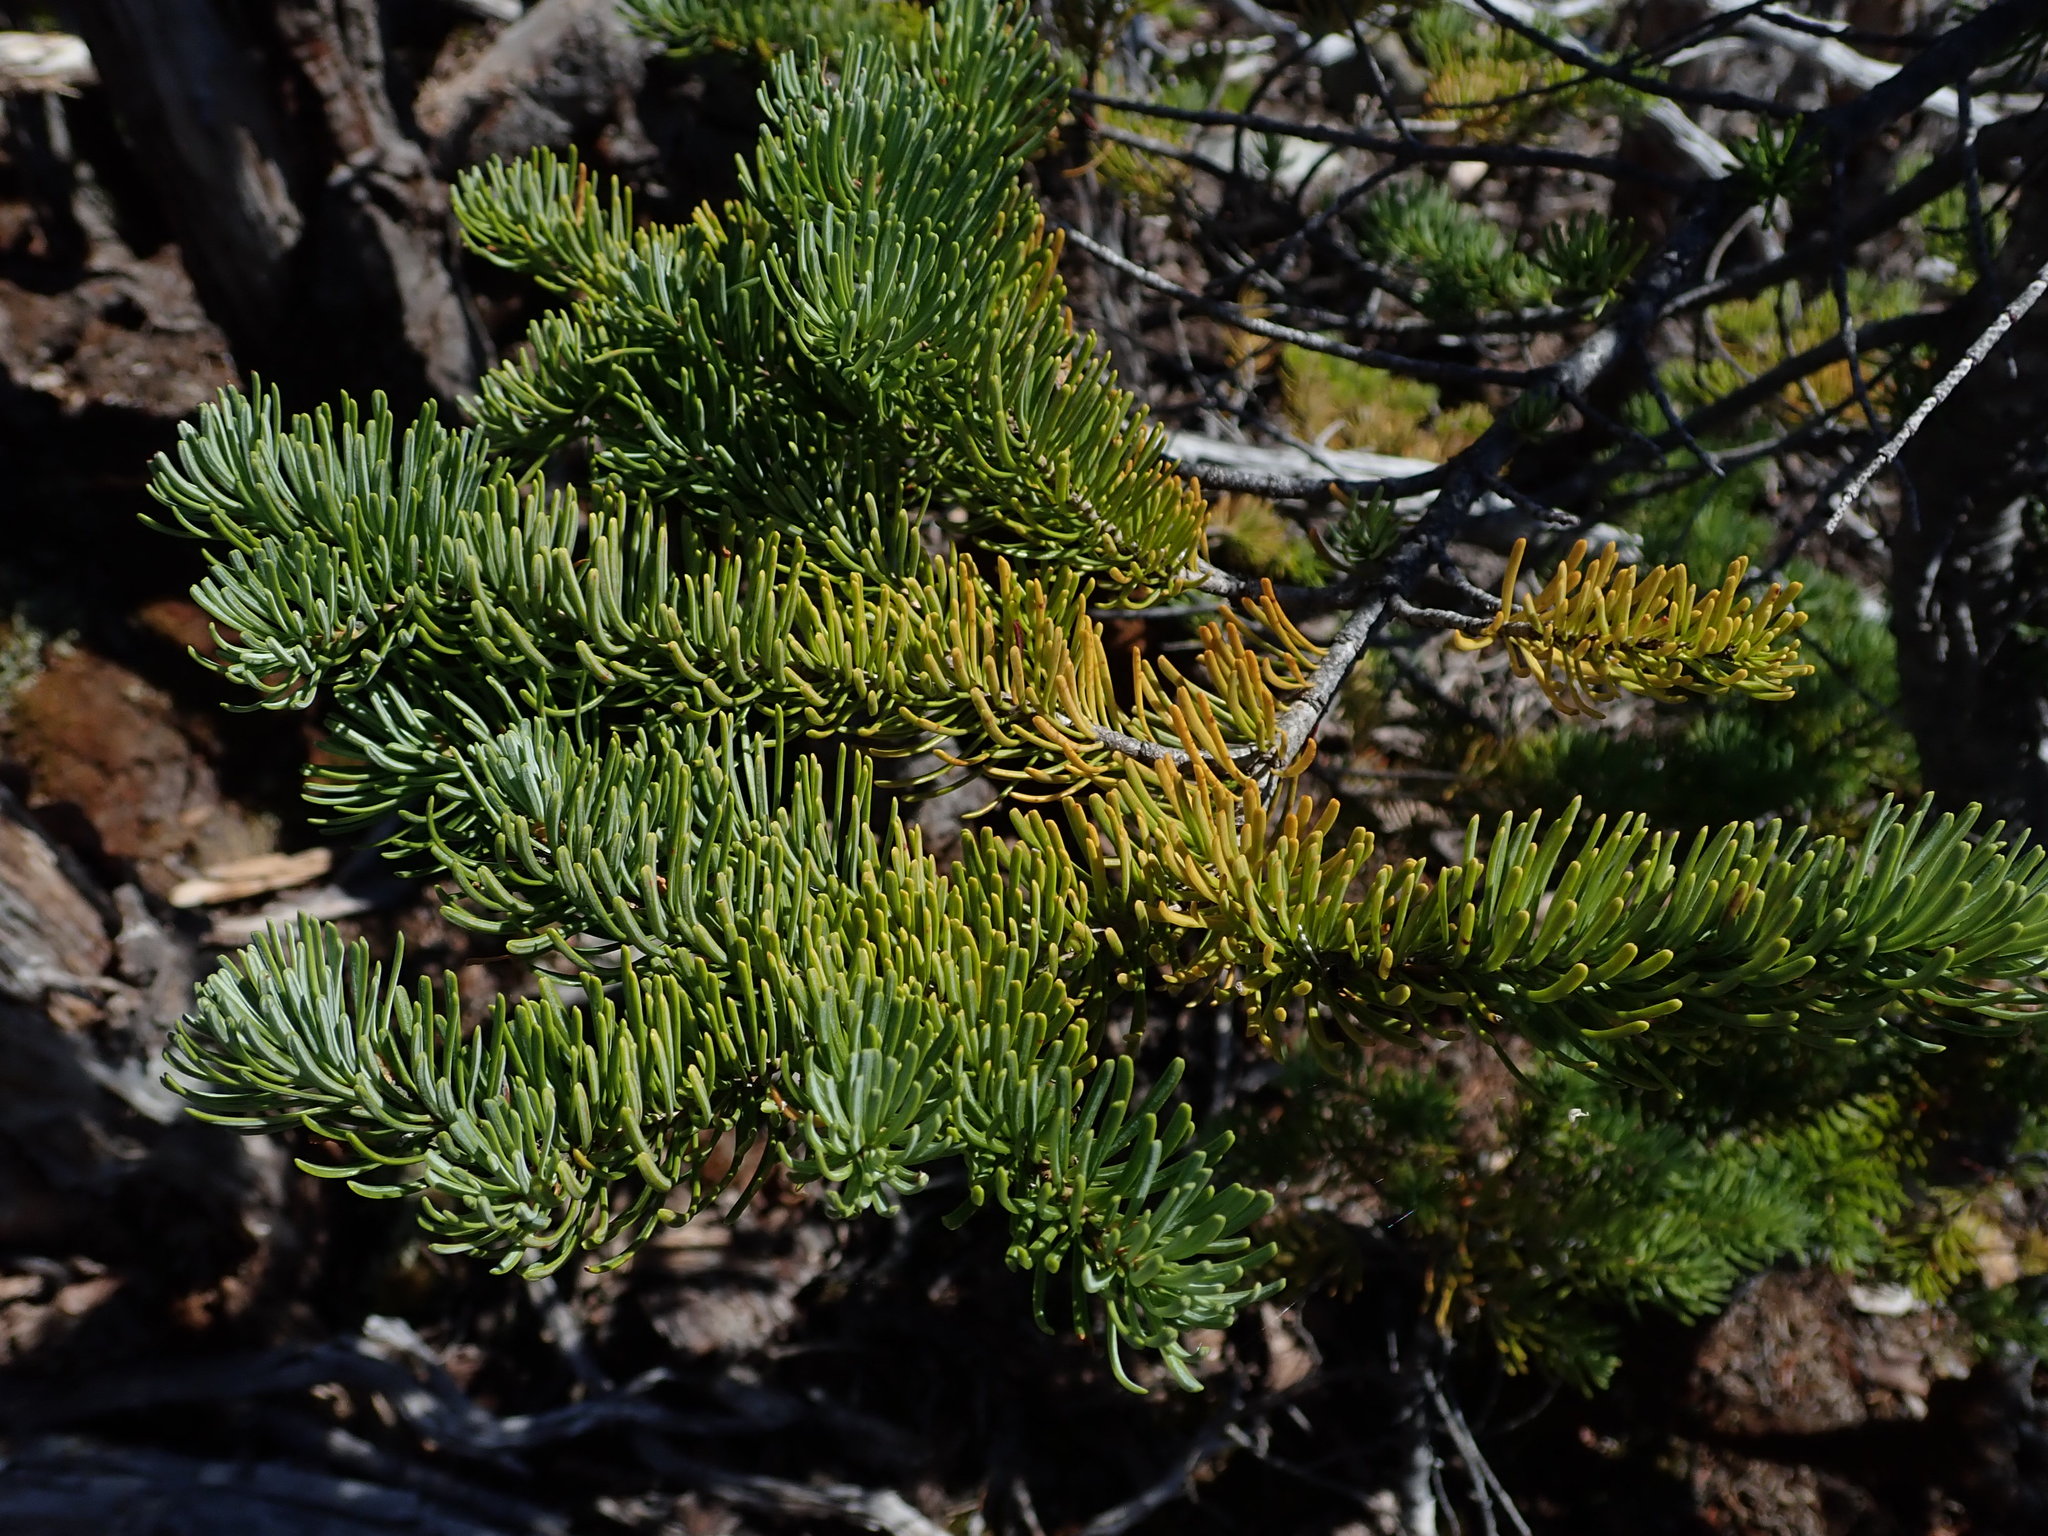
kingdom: Plantae
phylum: Tracheophyta
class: Pinopsida
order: Pinales
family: Pinaceae
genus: Abies
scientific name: Abies lasiocarpa
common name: Subalpine fir
